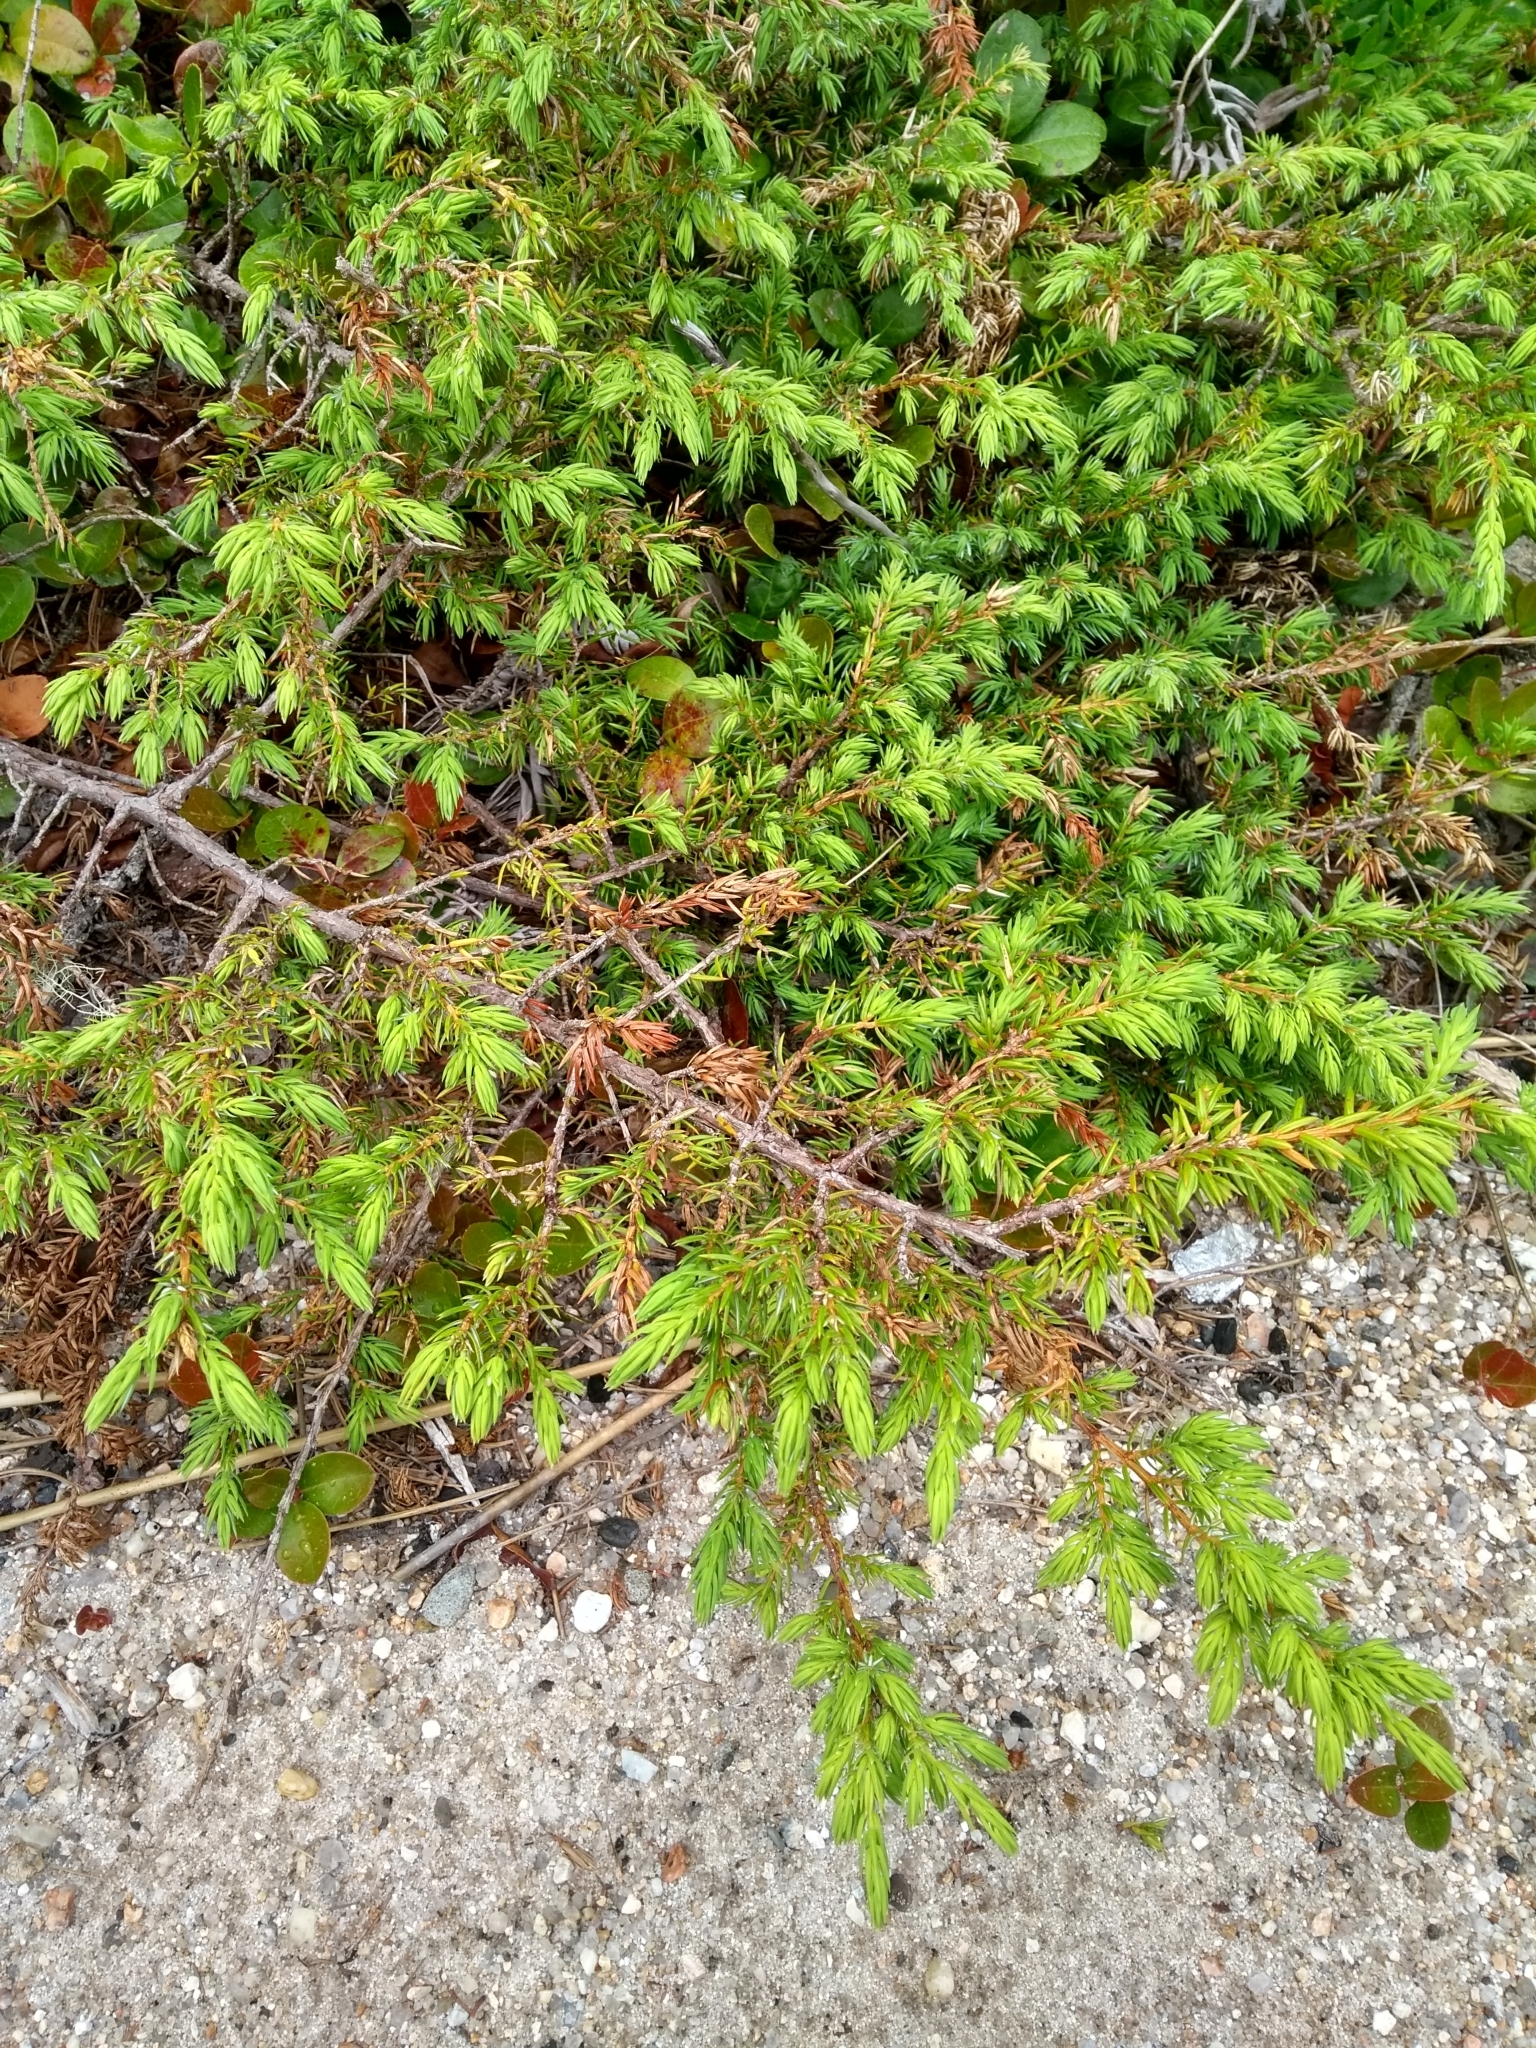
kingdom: Plantae
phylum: Tracheophyta
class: Pinopsida
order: Pinales
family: Cupressaceae
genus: Juniperus
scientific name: Juniperus communis
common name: Common juniper
